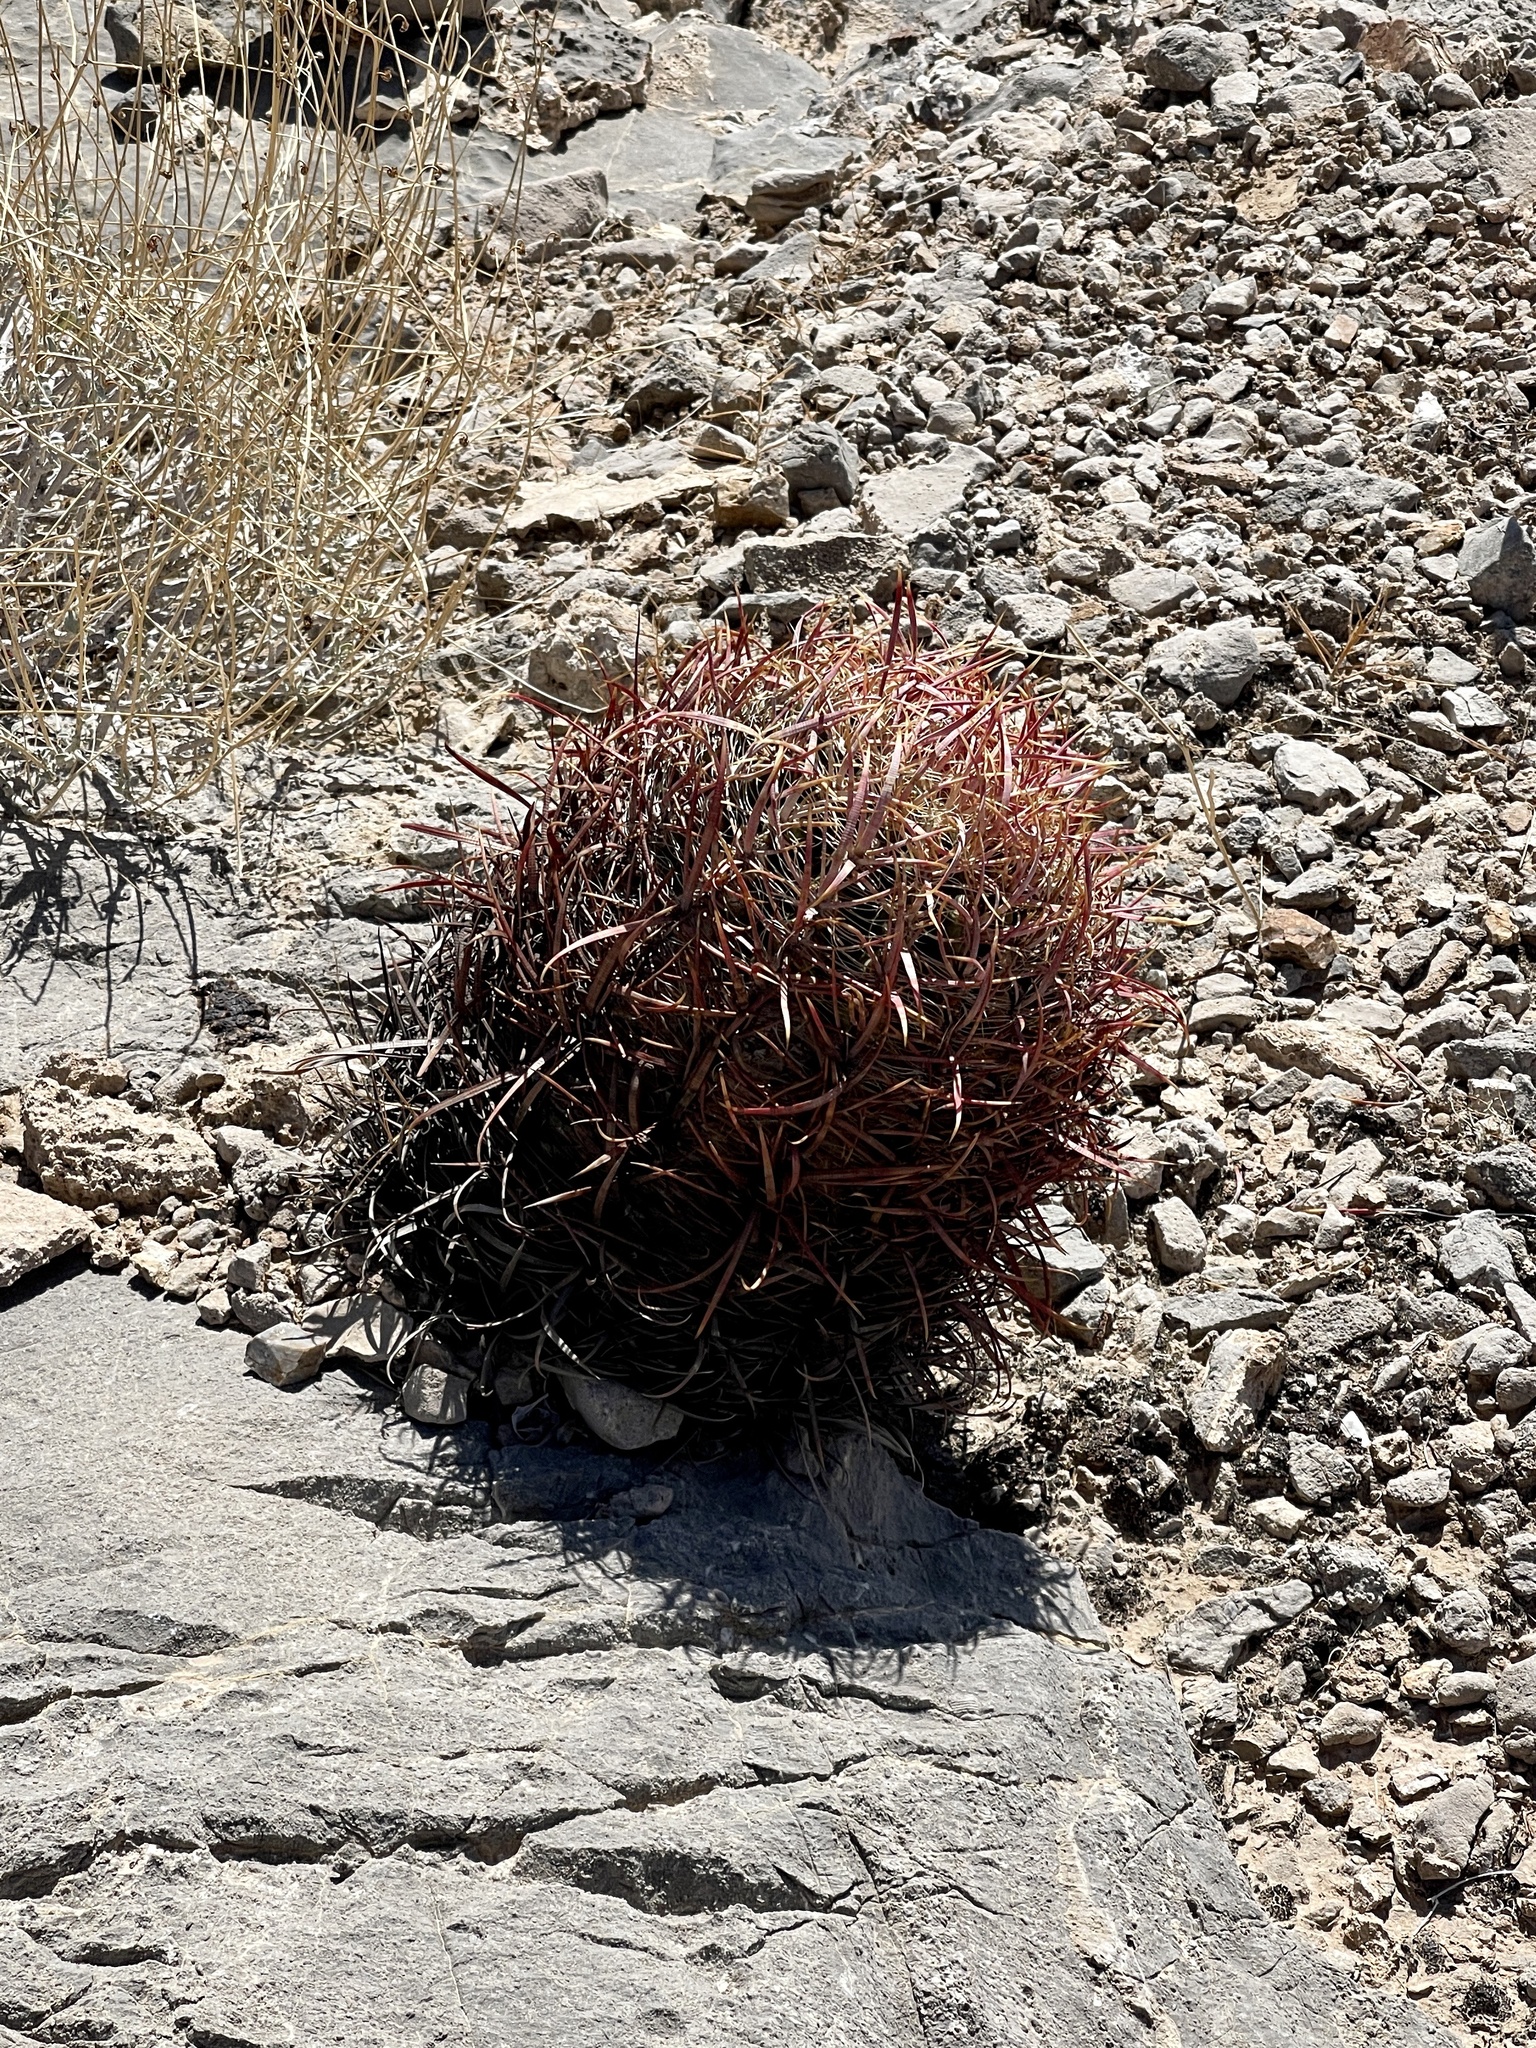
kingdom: Plantae
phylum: Tracheophyta
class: Magnoliopsida
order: Caryophyllales
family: Cactaceae
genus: Ferocactus
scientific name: Ferocactus cylindraceus
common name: California barrel cactus
